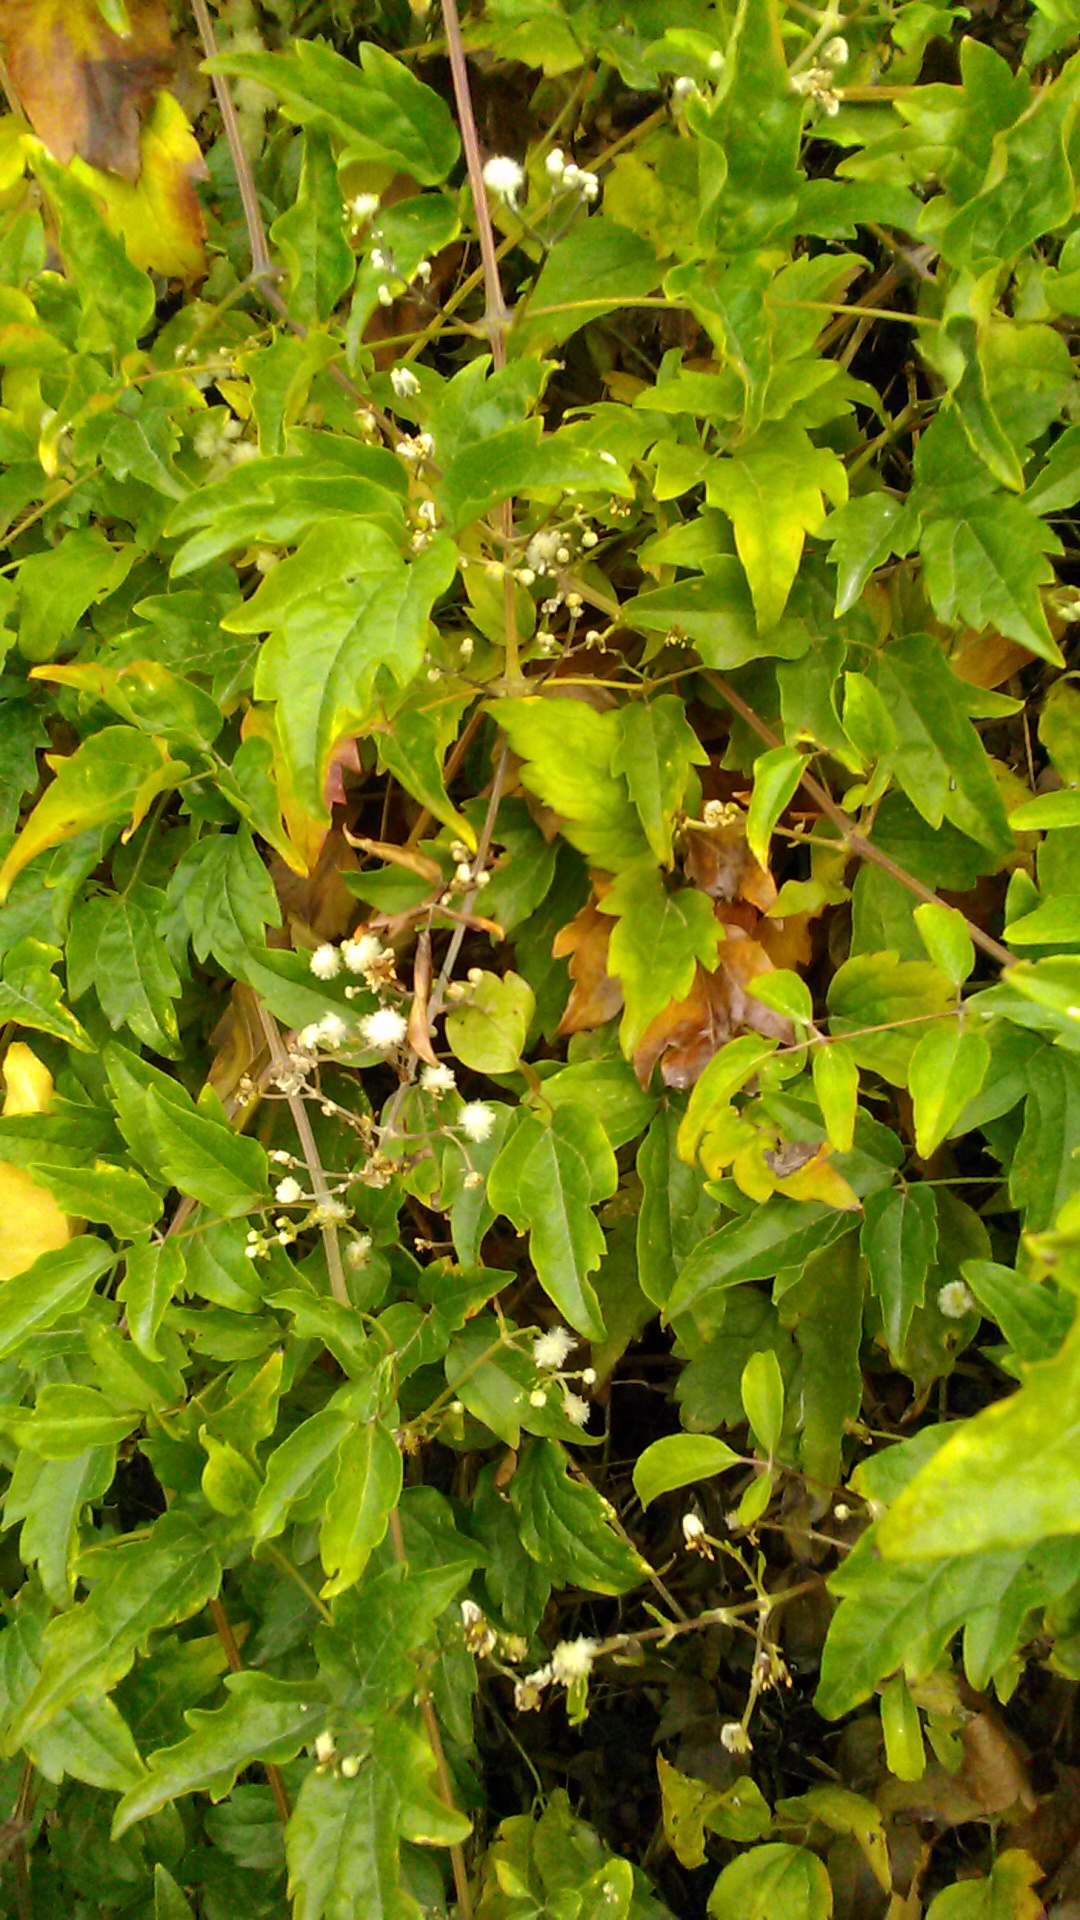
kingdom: Plantae
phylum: Tracheophyta
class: Magnoliopsida
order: Ranunculales
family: Ranunculaceae
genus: Clematis
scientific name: Clematis vitalba
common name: Evergreen clematis
